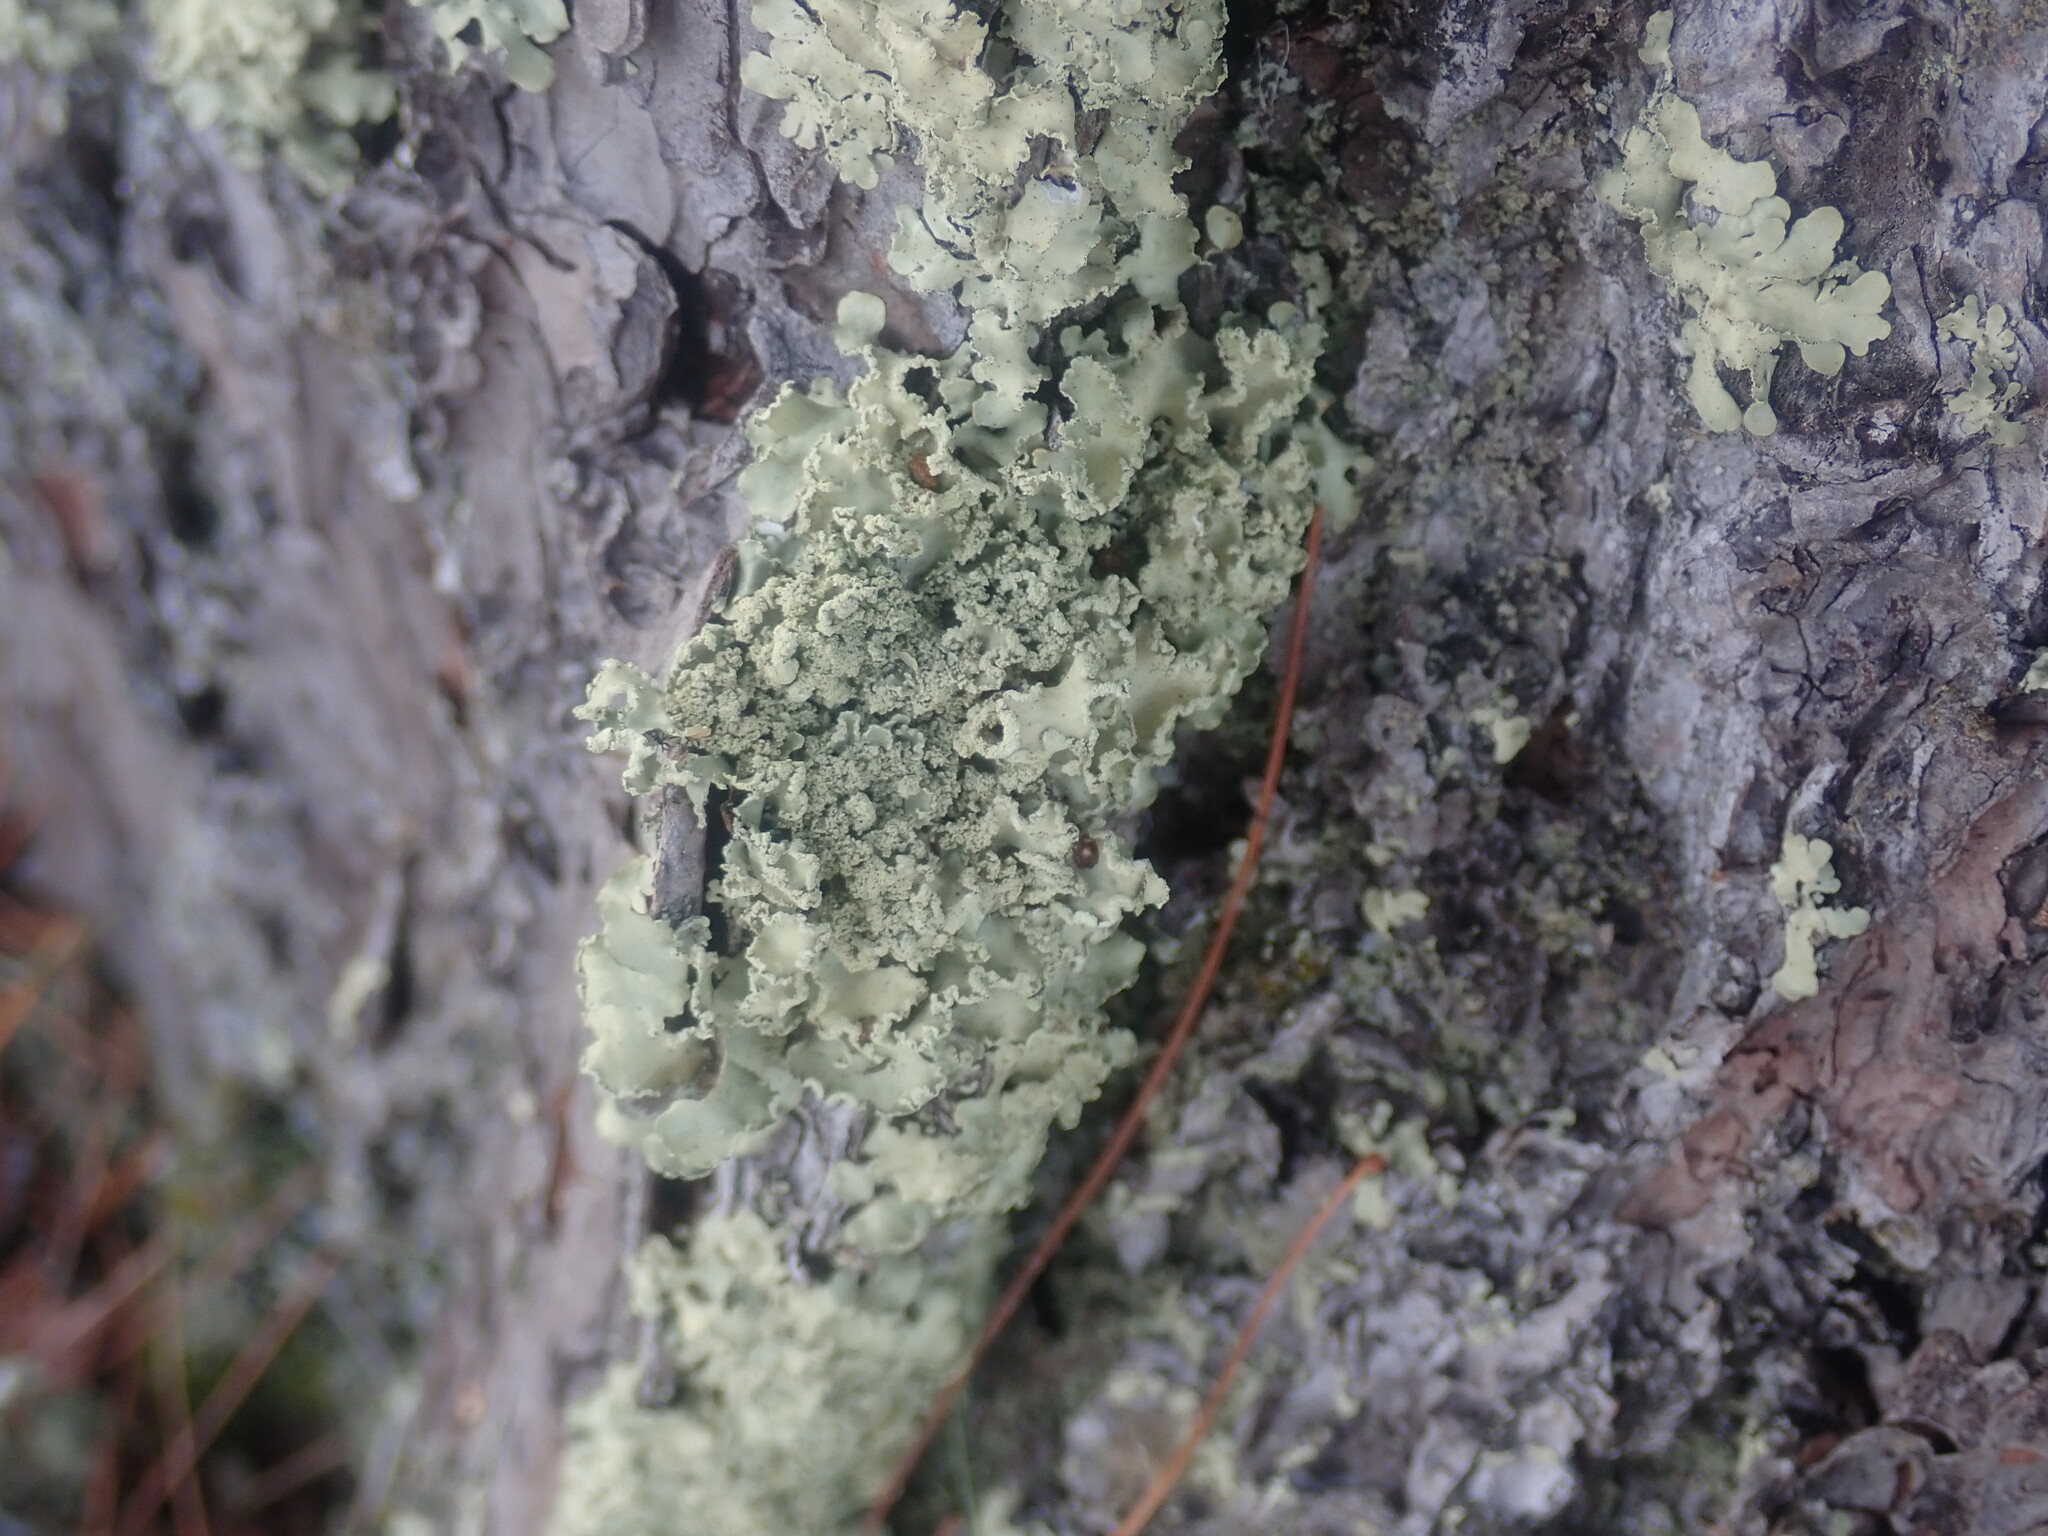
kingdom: Fungi
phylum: Ascomycota
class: Lecanoromycetes
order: Lecanorales
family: Parmeliaceae
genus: Usnocetraria
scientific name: Usnocetraria oakesiana
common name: Yellow ribbon lichen
